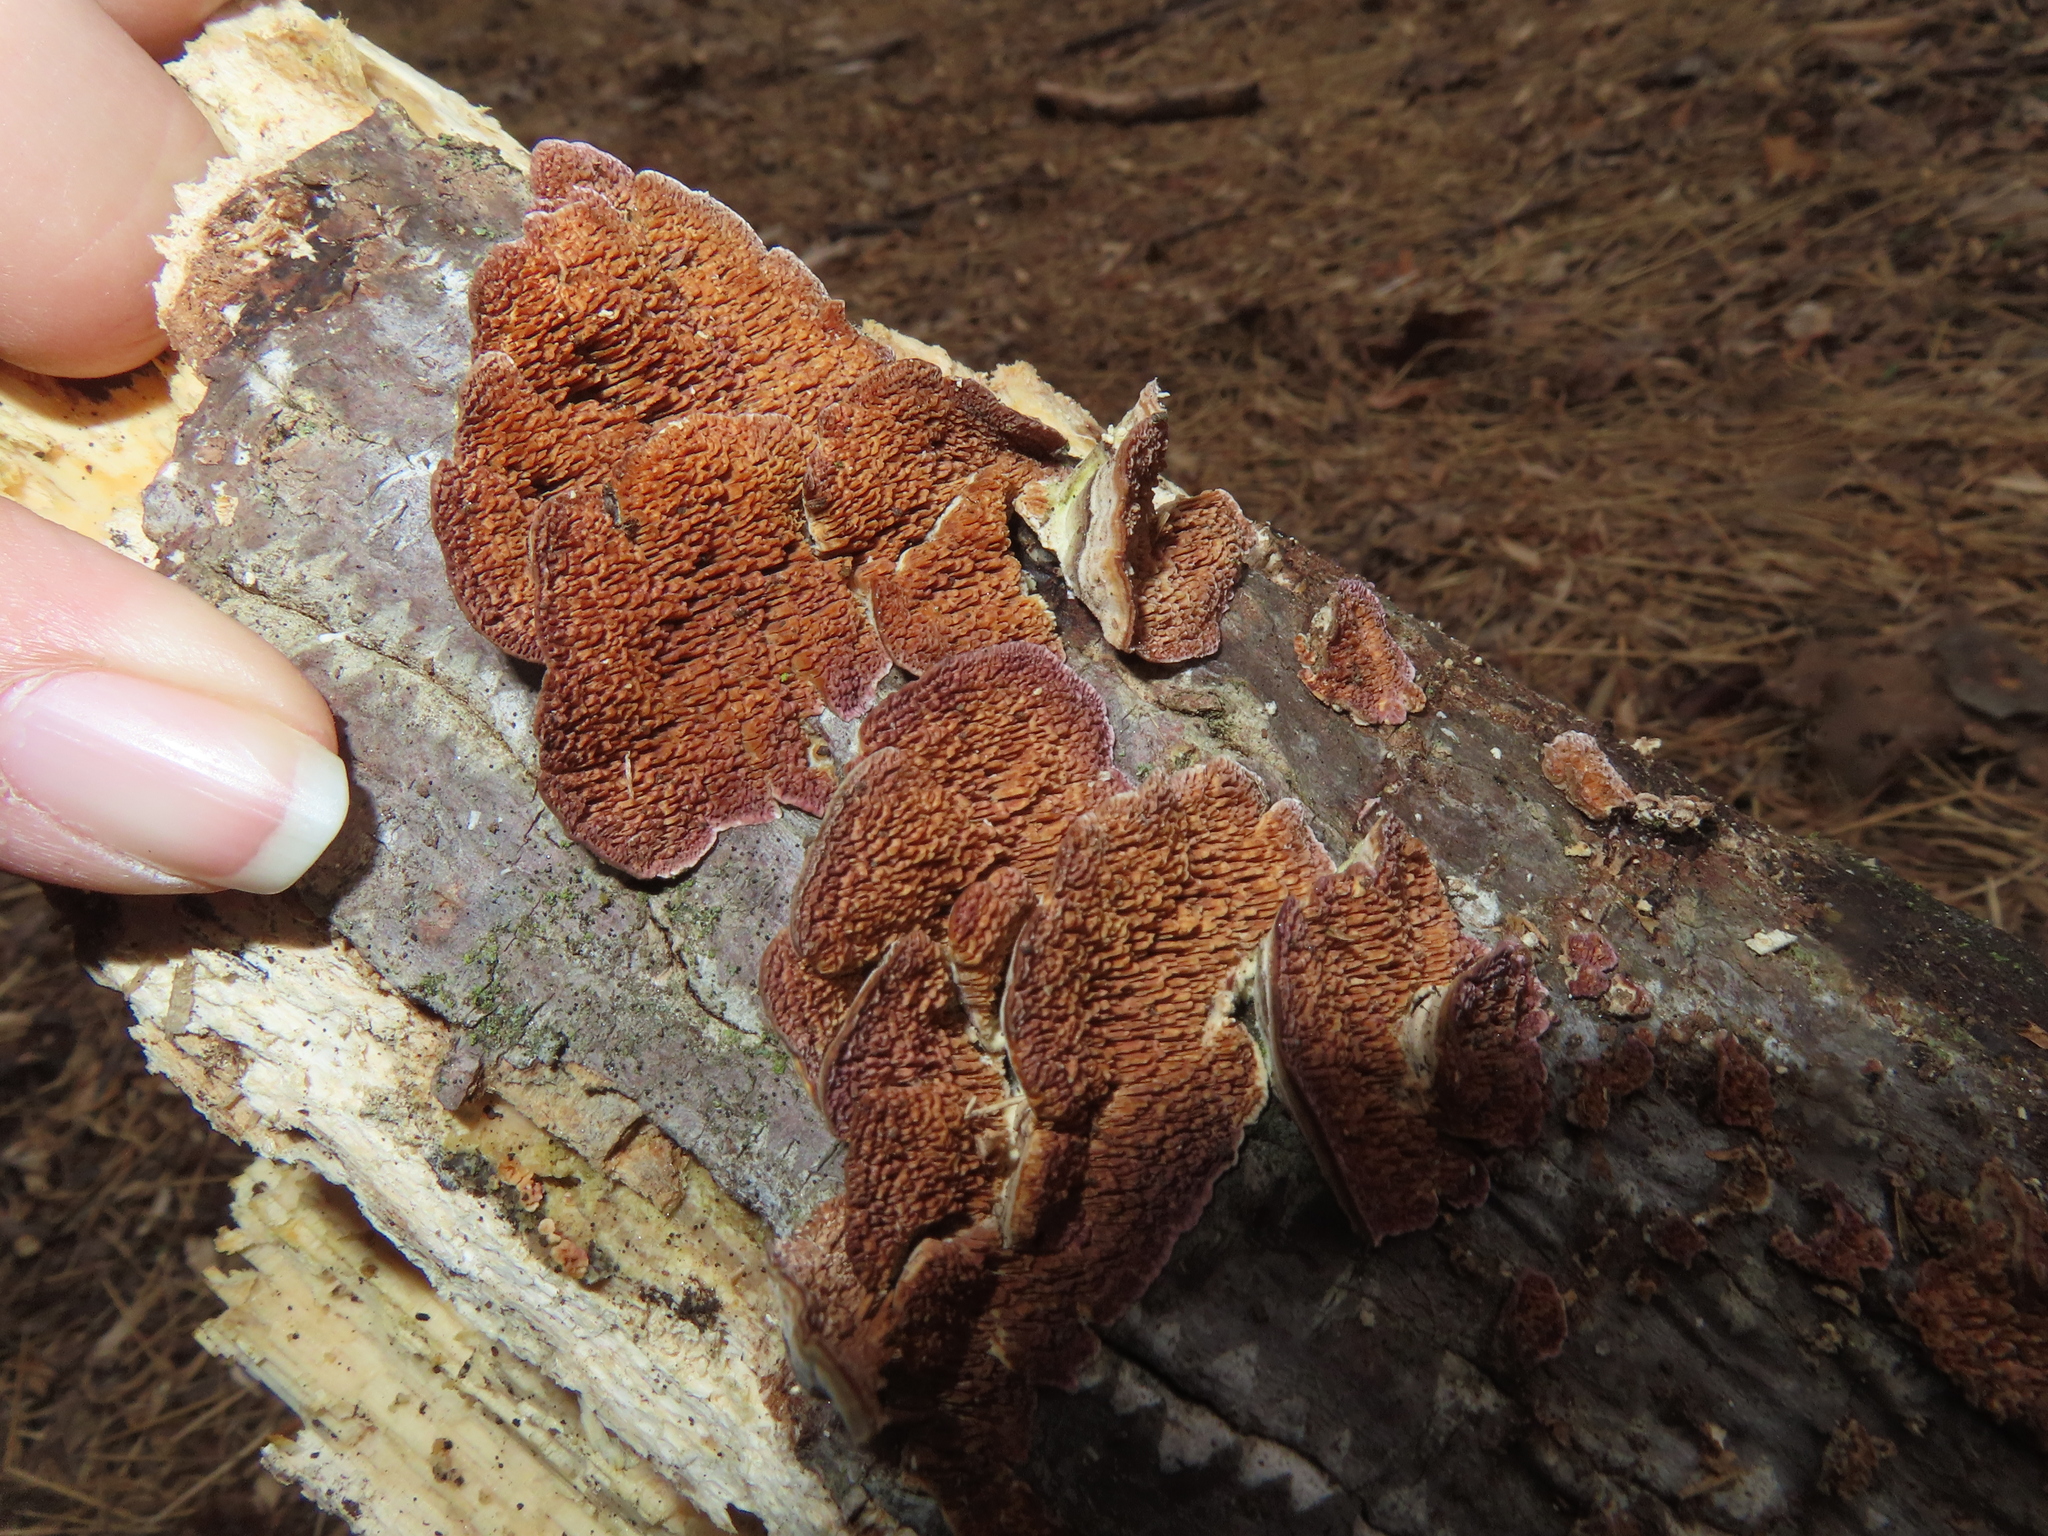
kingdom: Fungi
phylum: Basidiomycota
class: Agaricomycetes
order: Hymenochaetales
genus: Trichaptum
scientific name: Trichaptum biforme
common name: Violet-toothed polypore
